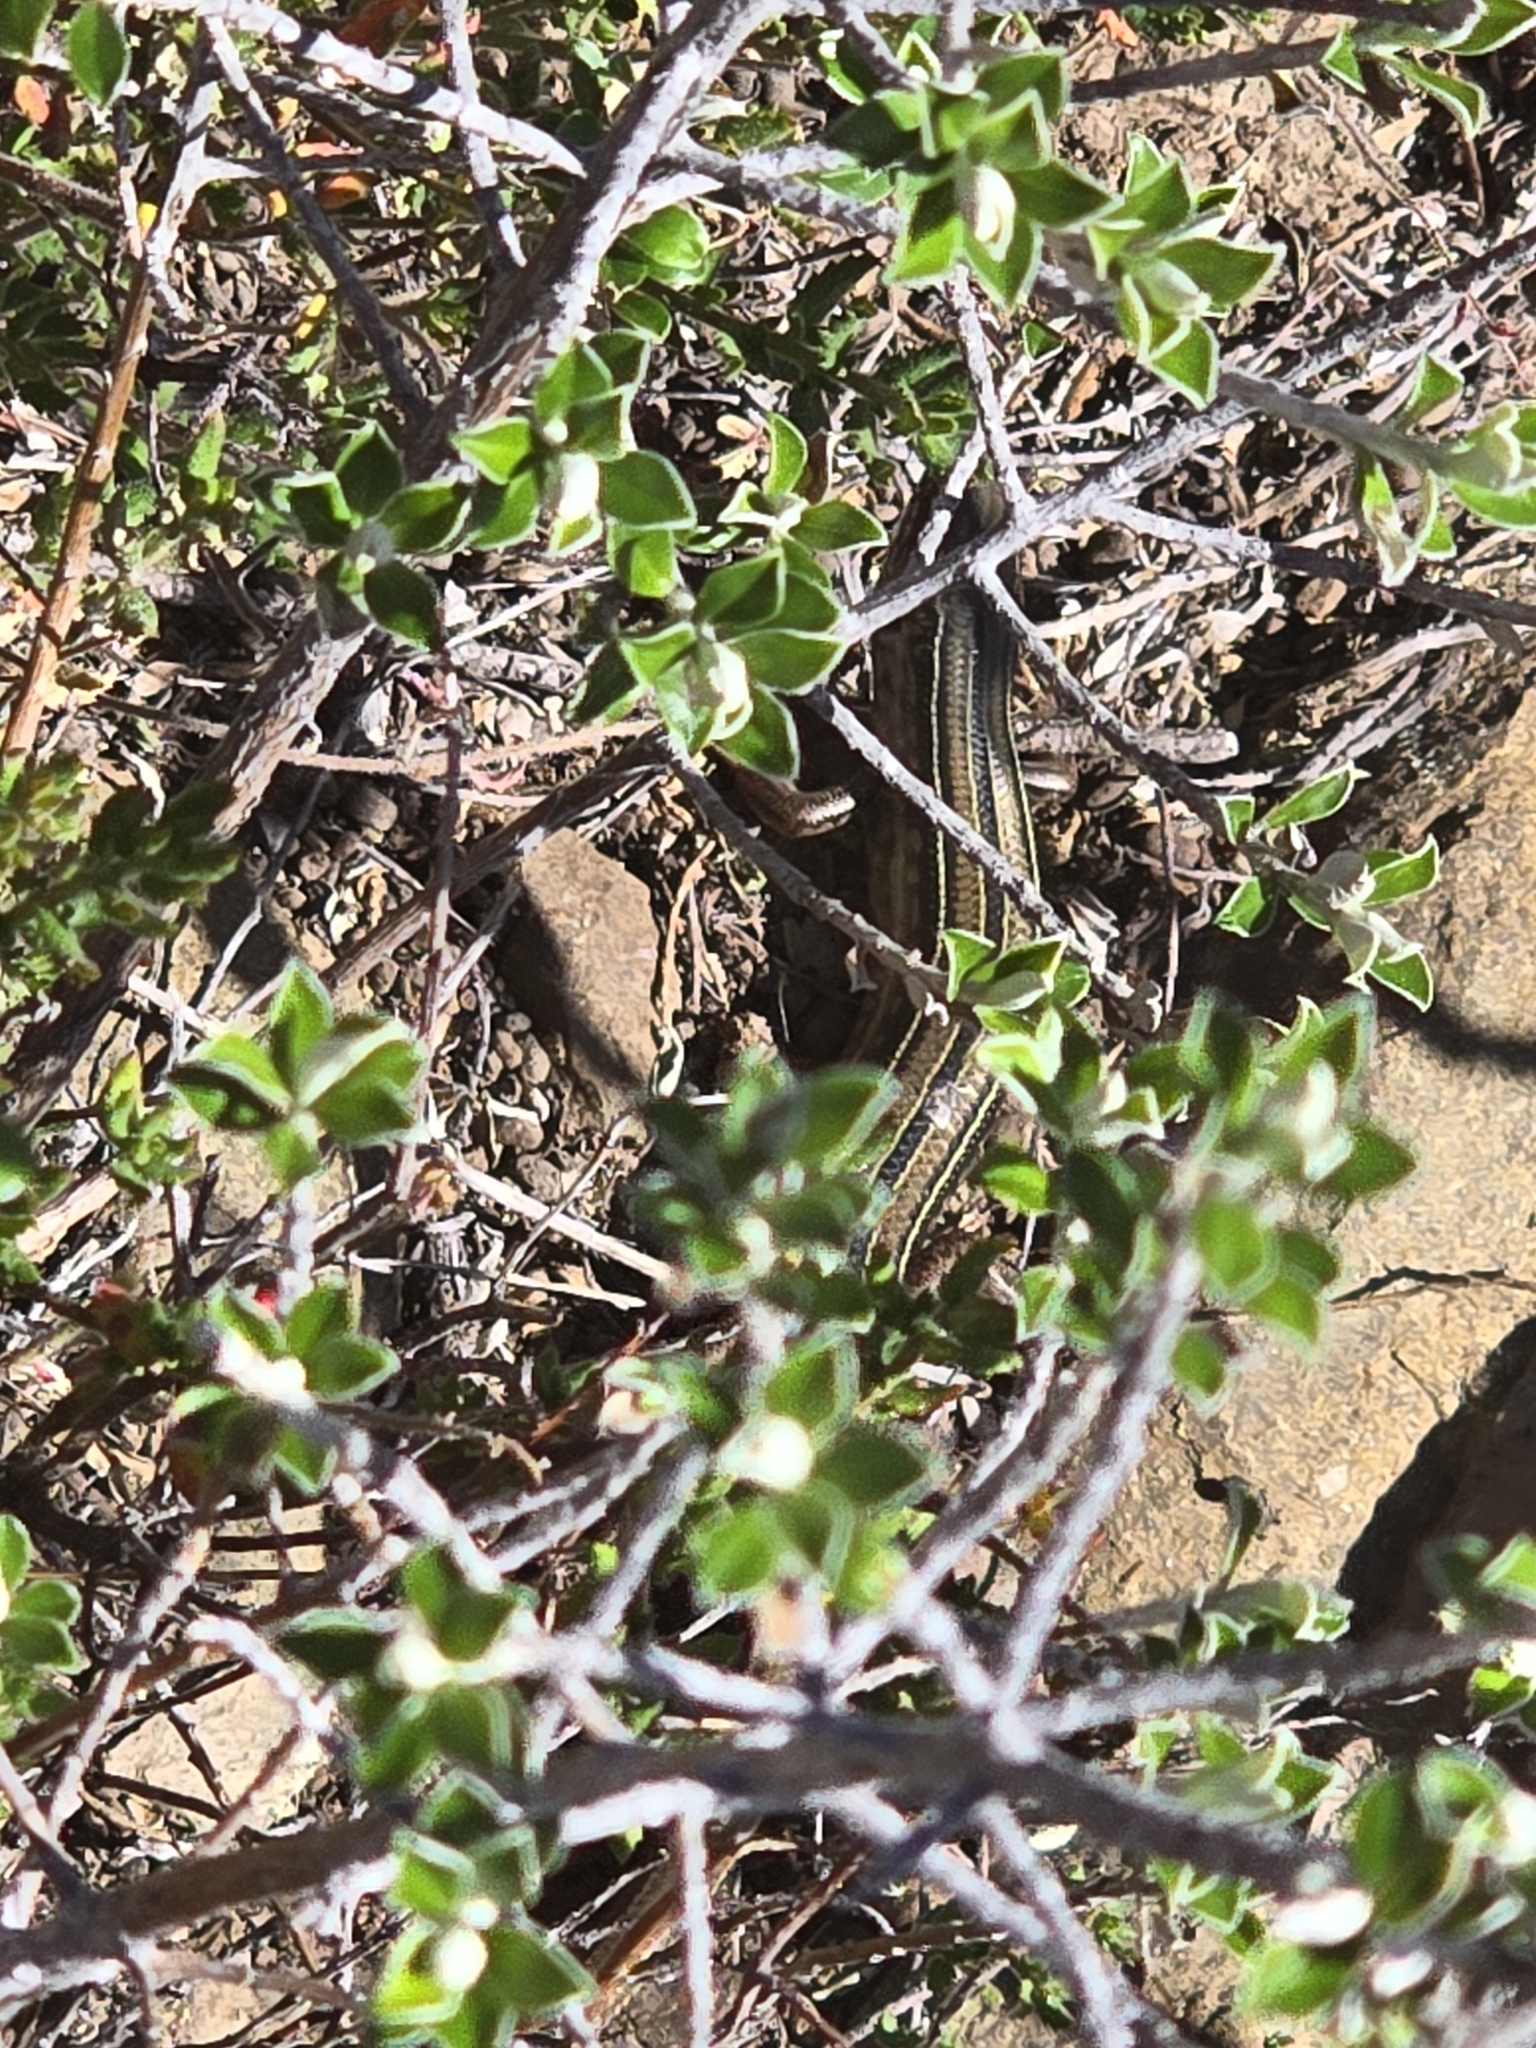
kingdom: Animalia
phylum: Chordata
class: Squamata
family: Scincidae
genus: Ctenotus
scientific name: Ctenotus robustus
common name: Robust ctenotus
